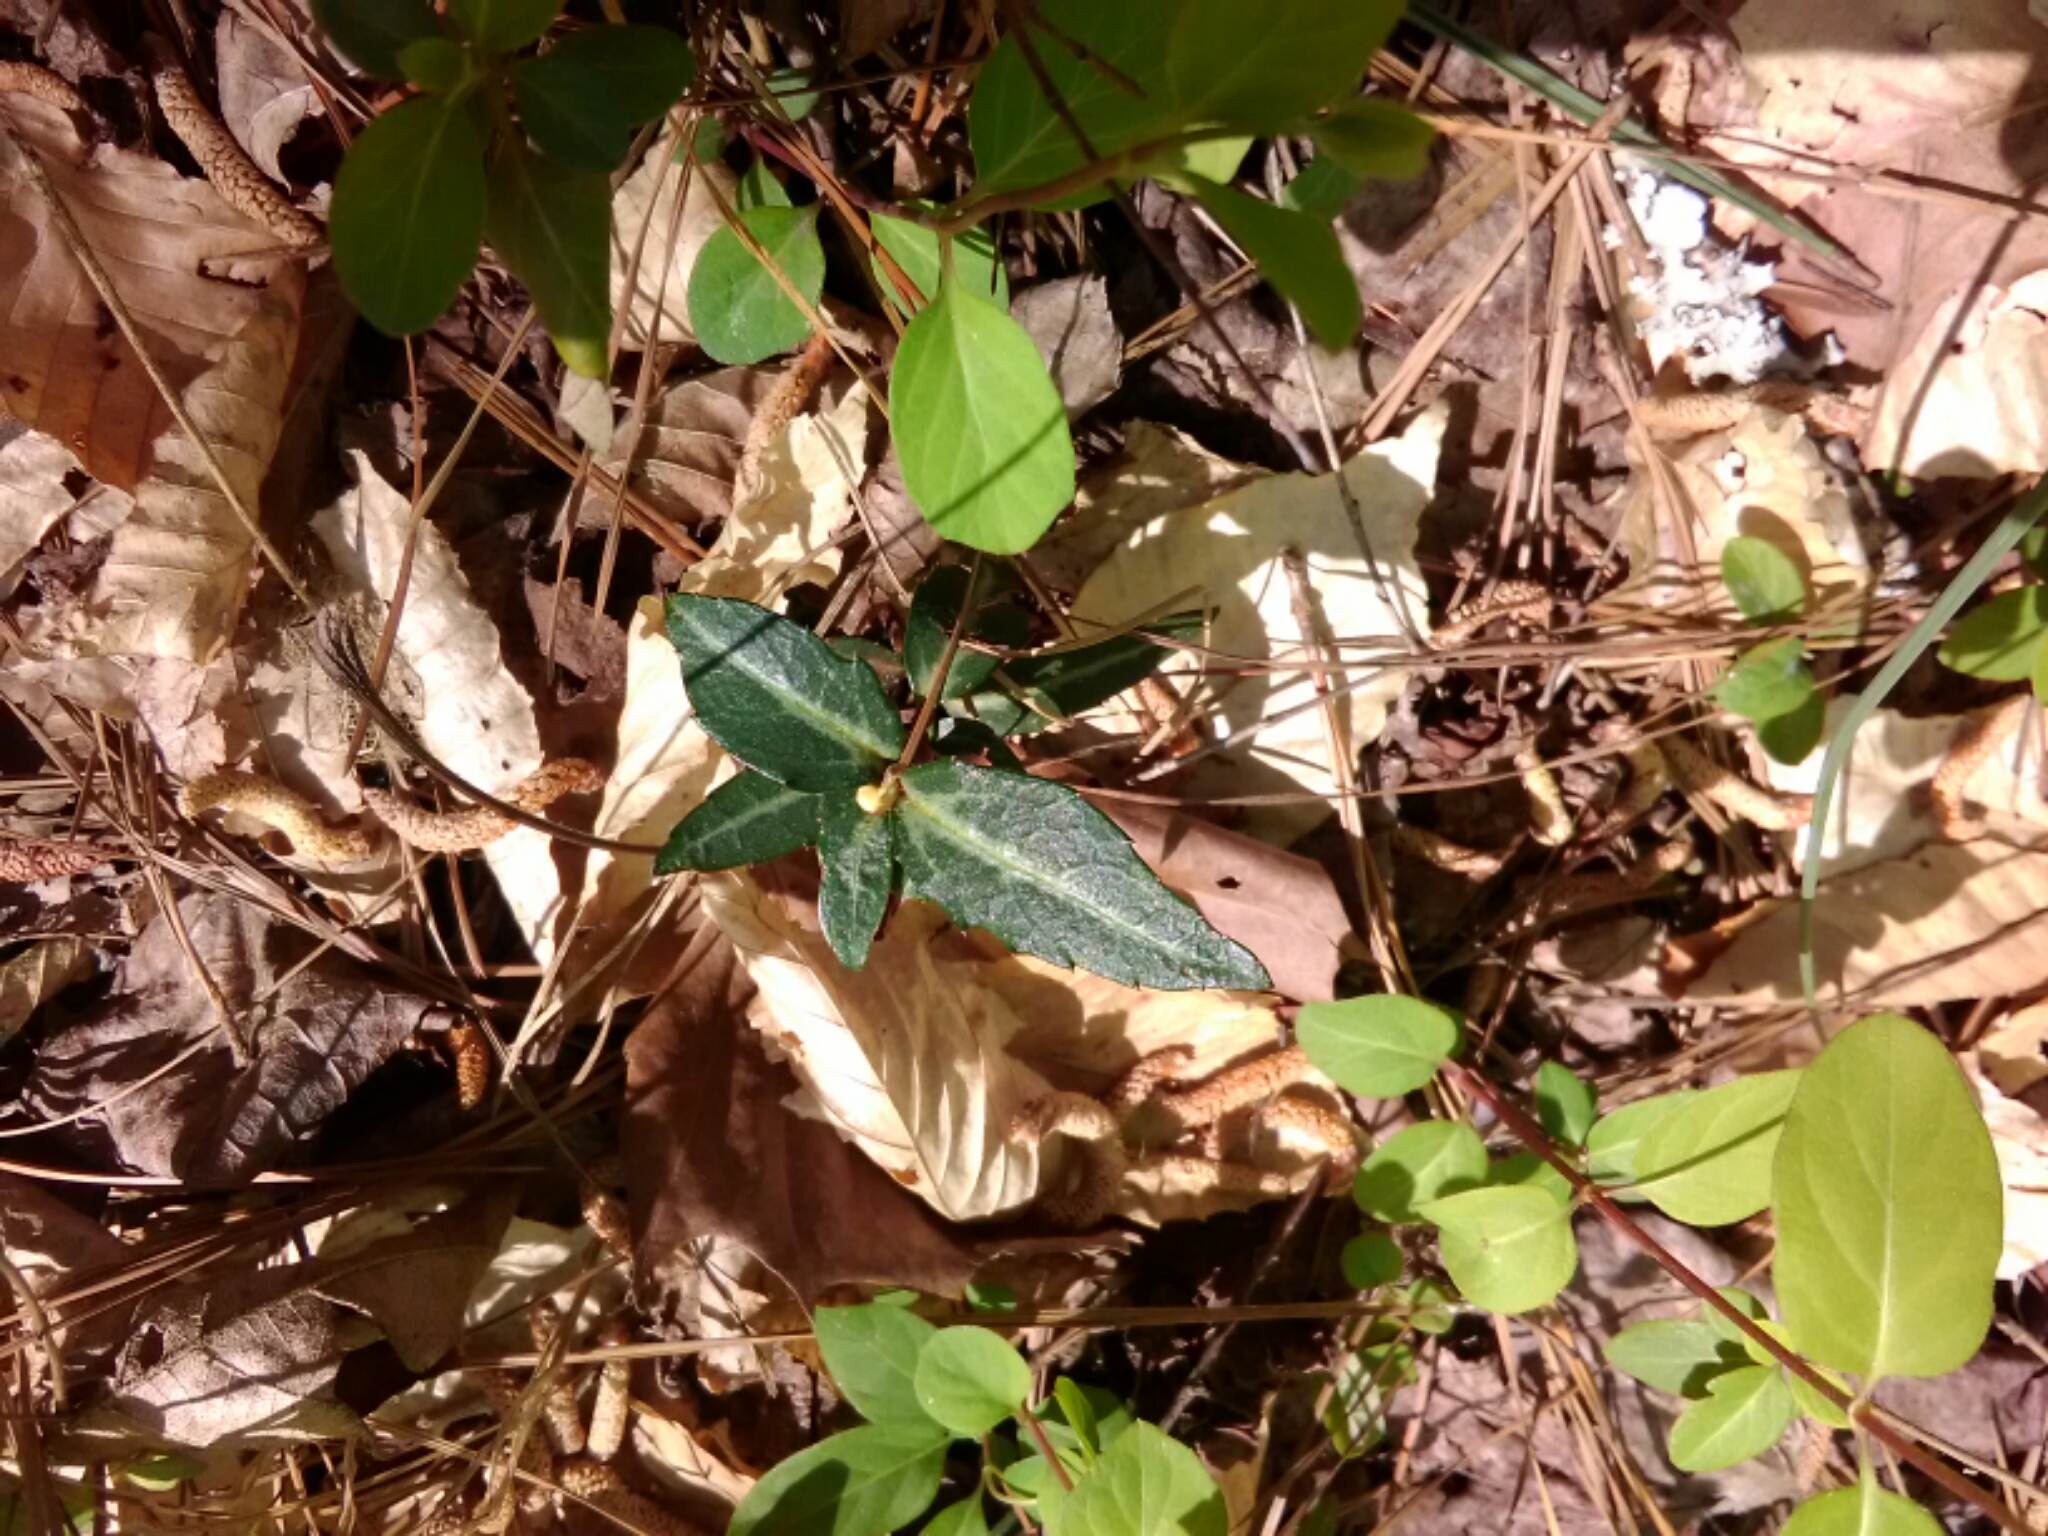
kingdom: Plantae
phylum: Tracheophyta
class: Magnoliopsida
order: Ericales
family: Ericaceae
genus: Chimaphila
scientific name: Chimaphila maculata
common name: Spotted pipsissewa
